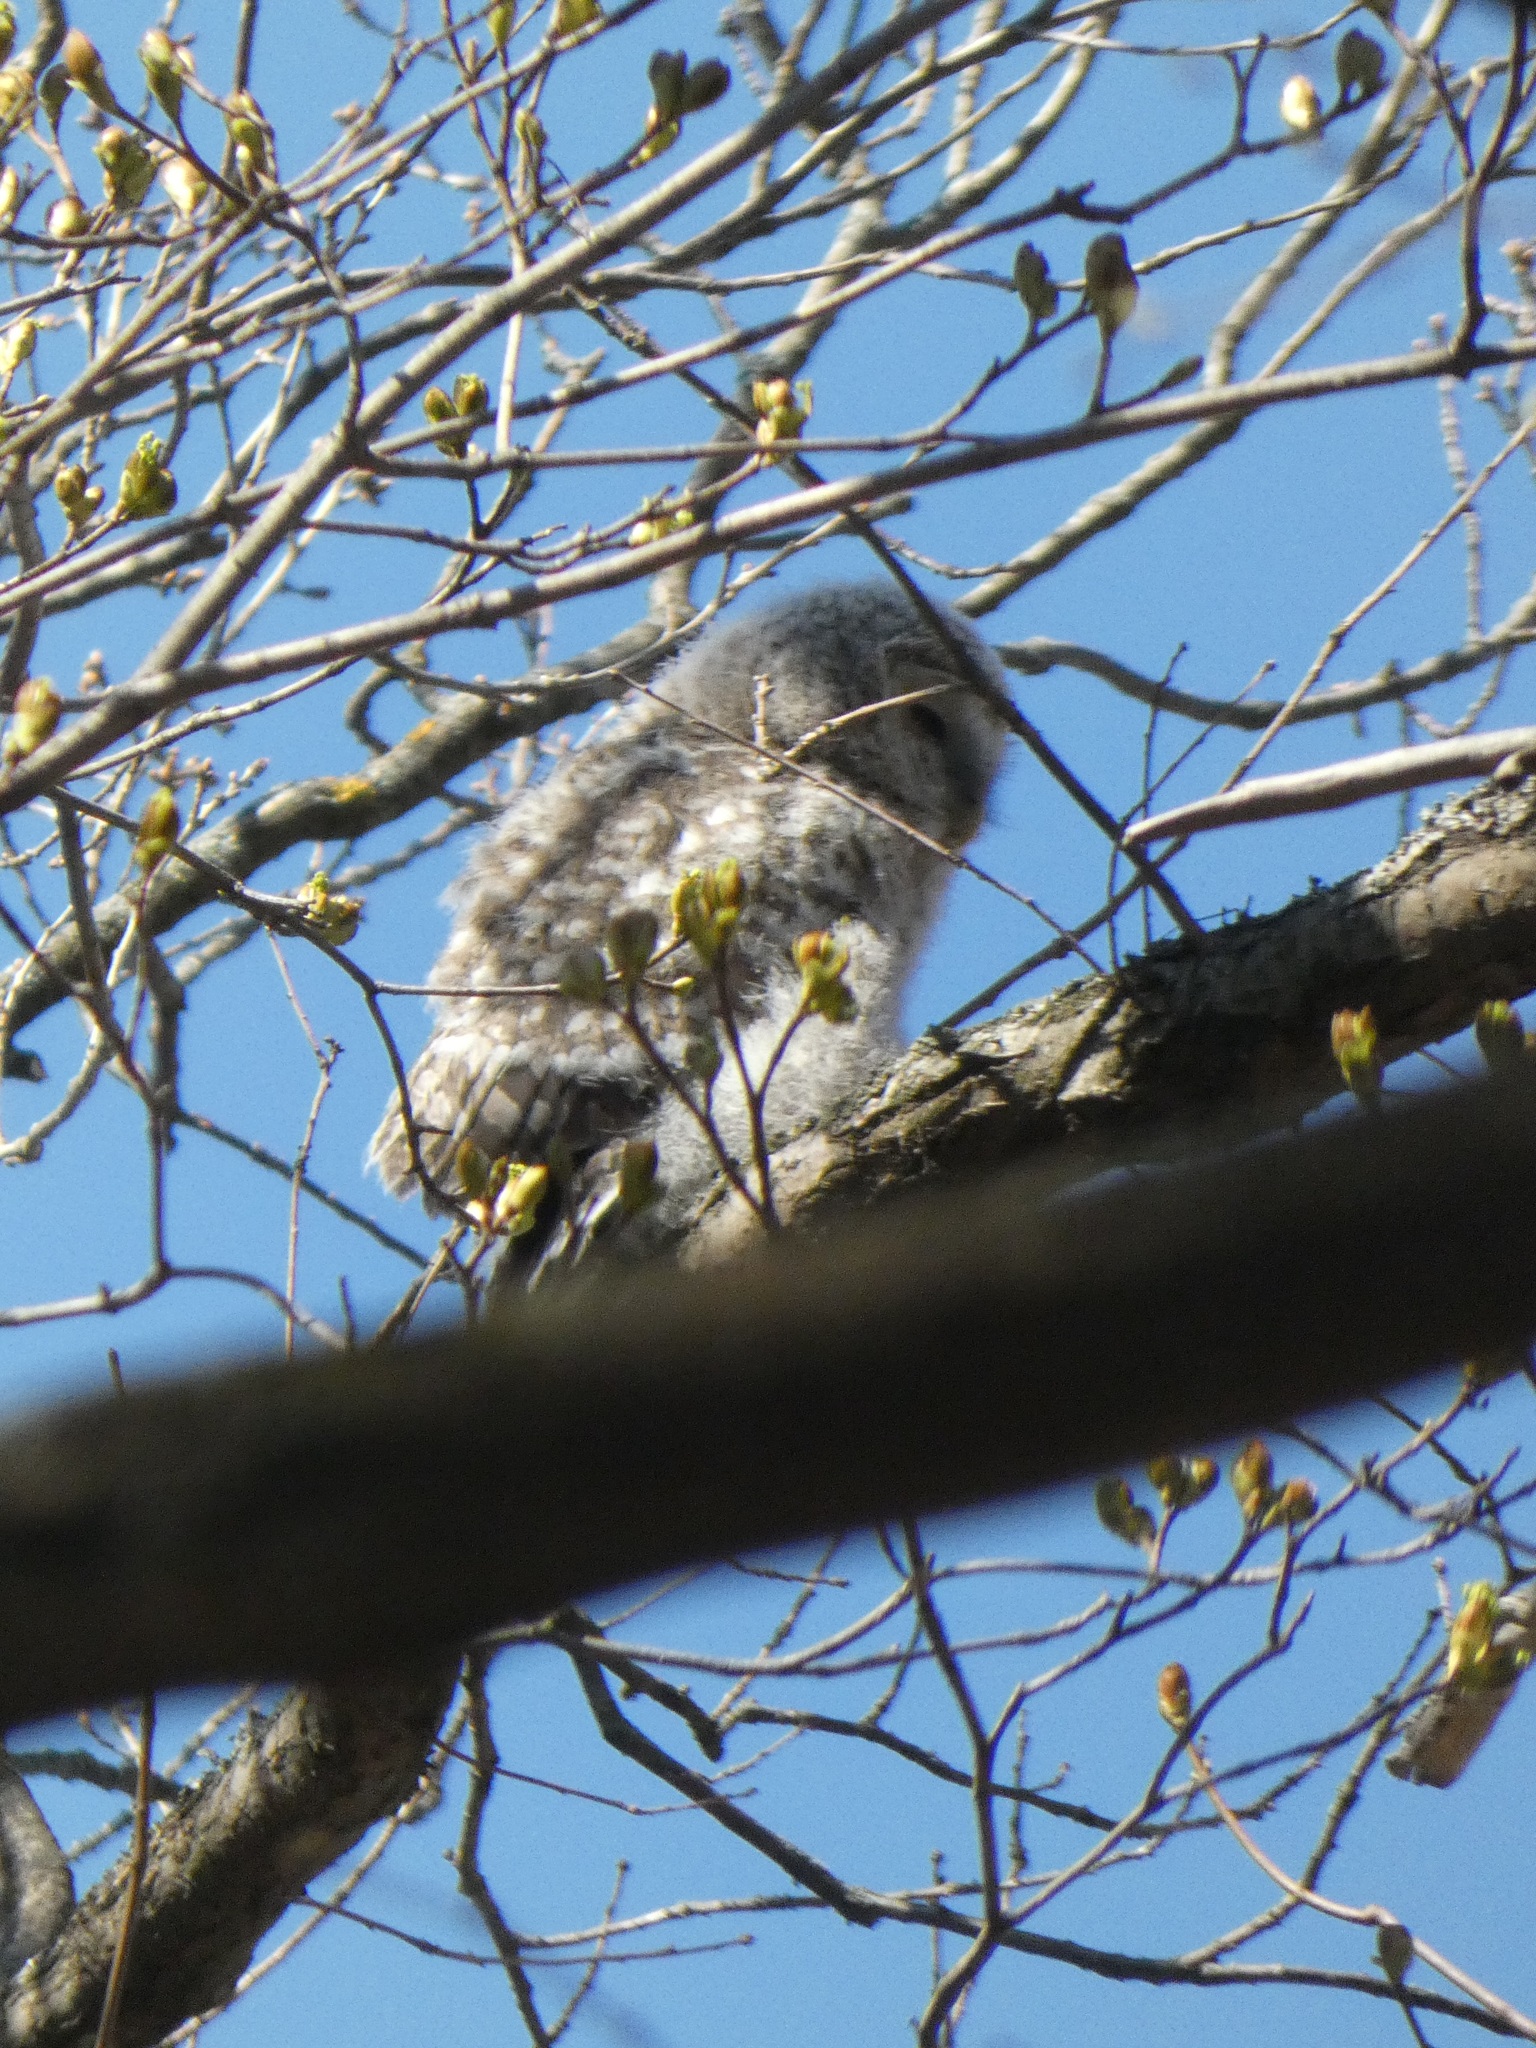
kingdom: Animalia
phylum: Chordata
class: Aves
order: Strigiformes
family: Strigidae
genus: Strix
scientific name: Strix uralensis
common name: Ural owl
